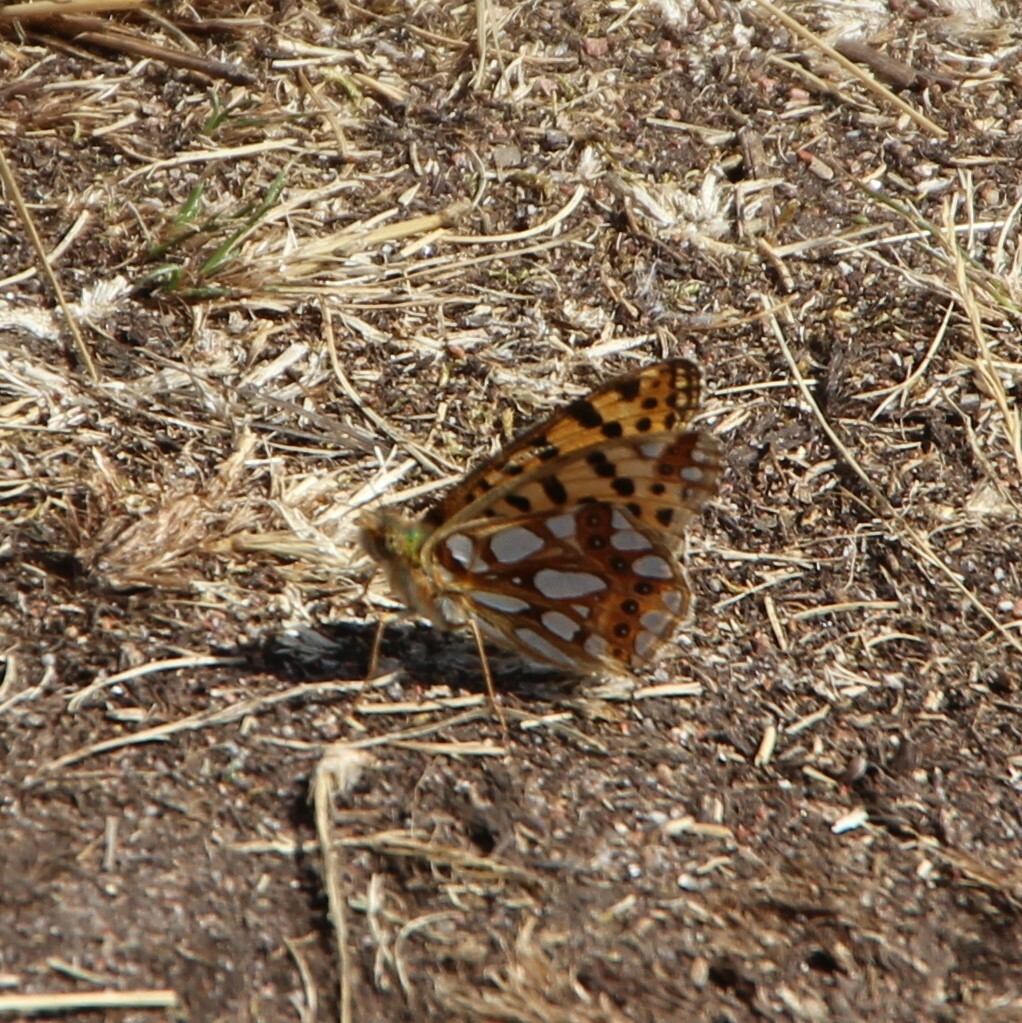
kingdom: Animalia
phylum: Arthropoda
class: Insecta
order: Lepidoptera
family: Nymphalidae
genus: Issoria
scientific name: Issoria lathonia
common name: Queen of spain fritillary
